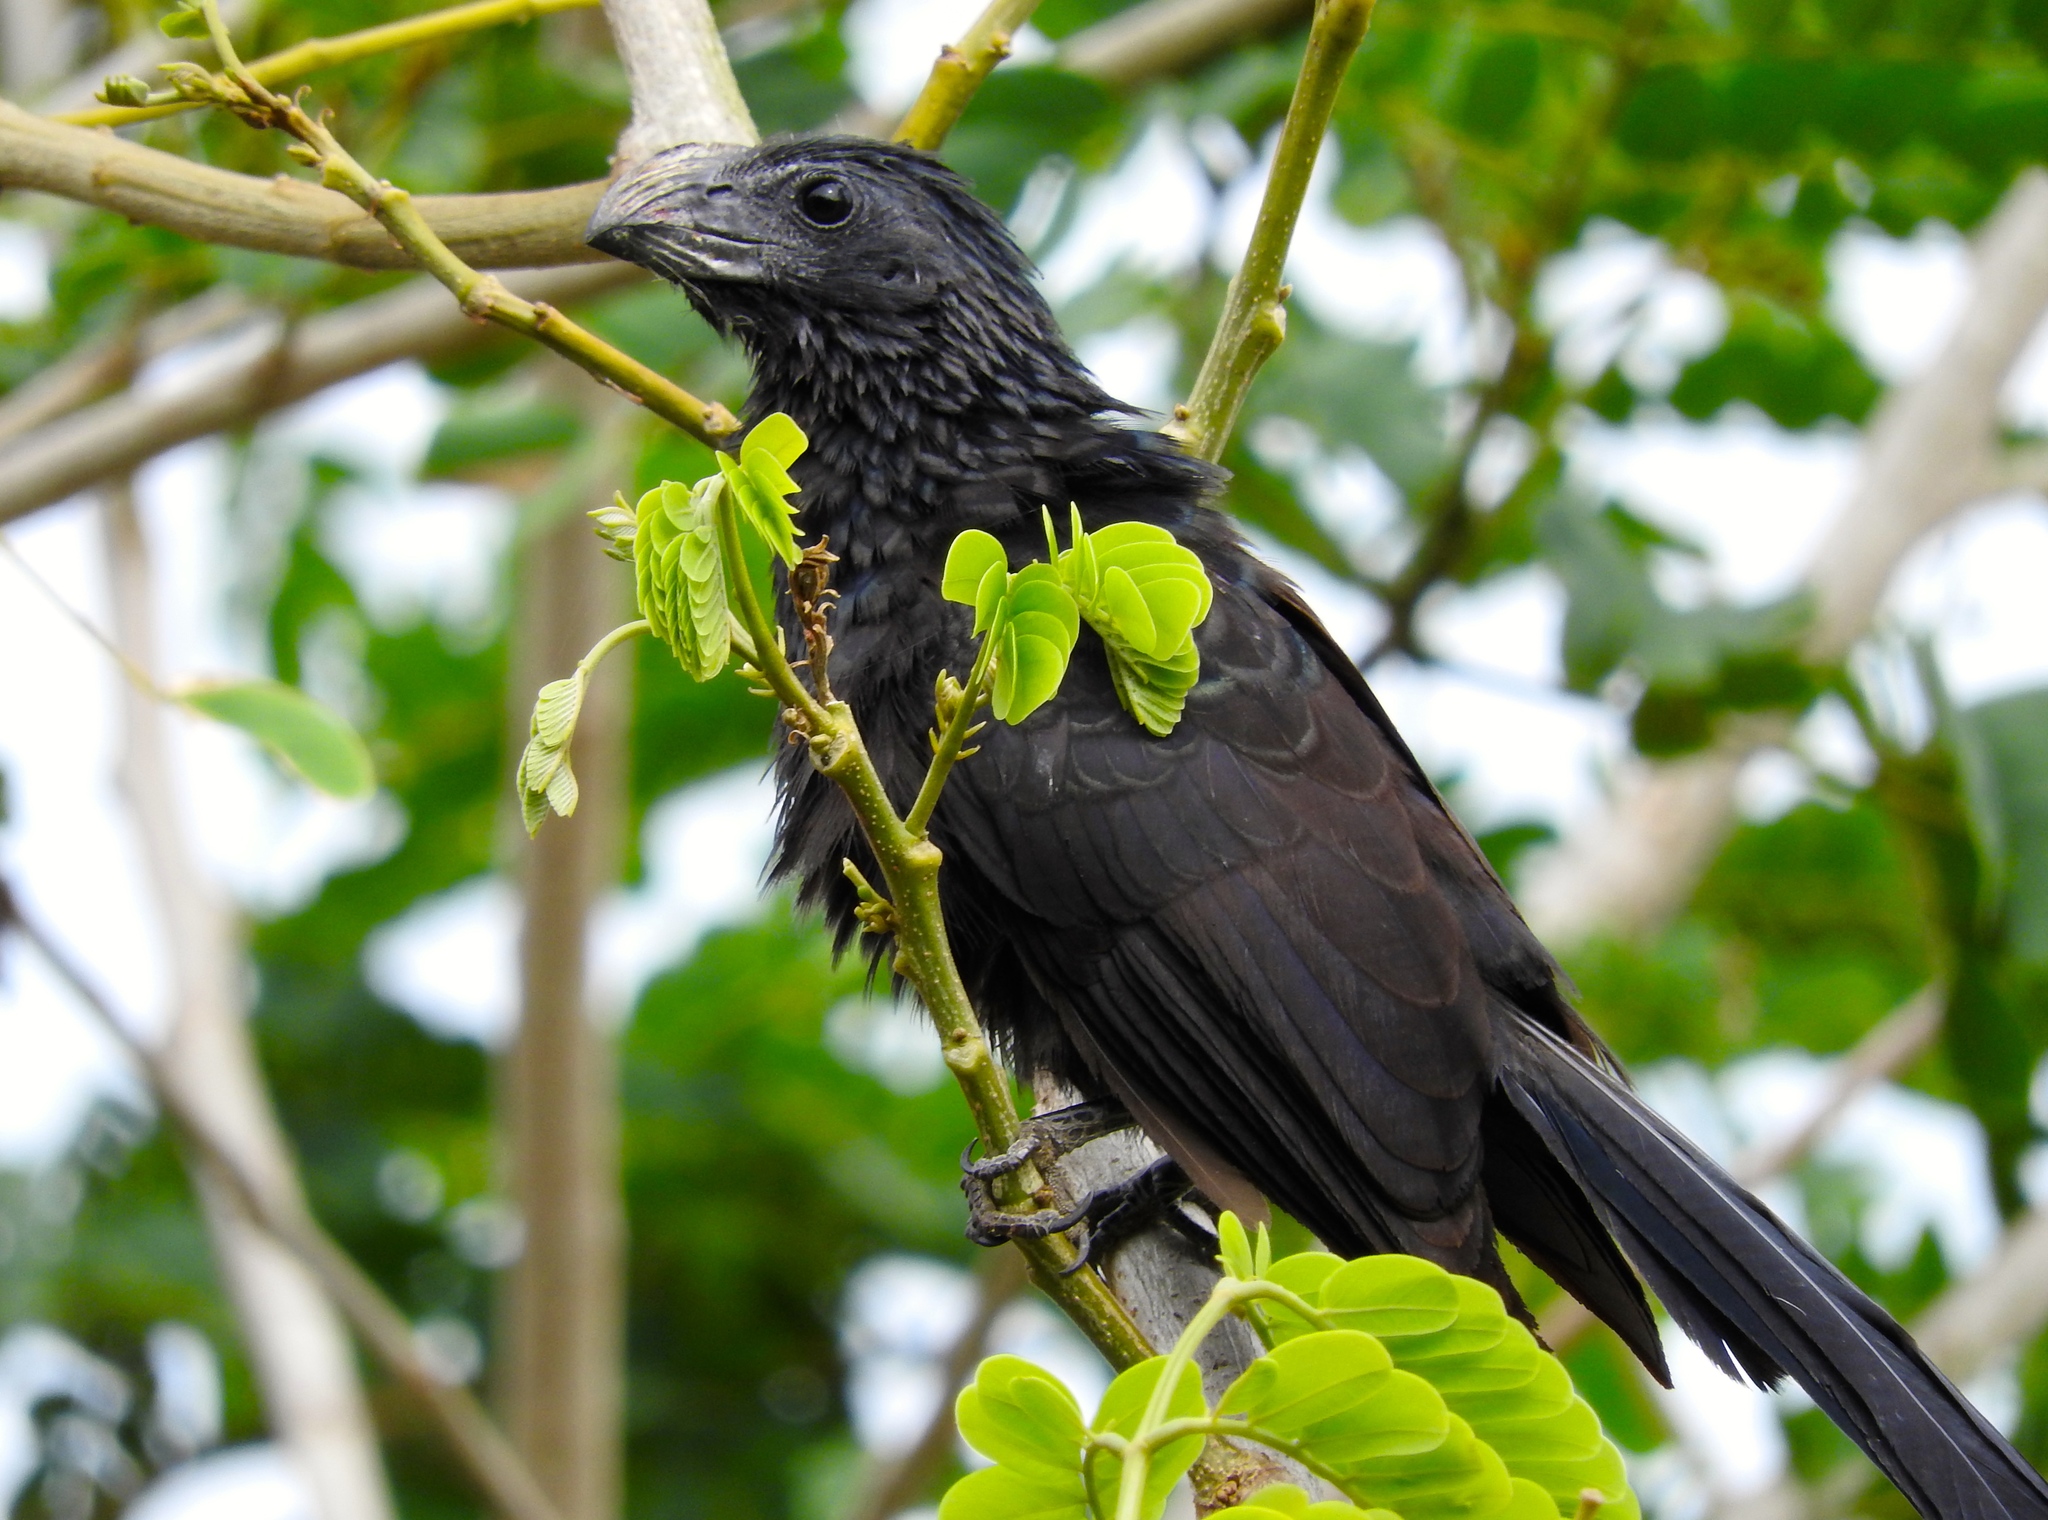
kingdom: Animalia
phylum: Chordata
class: Aves
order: Cuculiformes
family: Cuculidae
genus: Crotophaga
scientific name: Crotophaga sulcirostris
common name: Groove-billed ani
